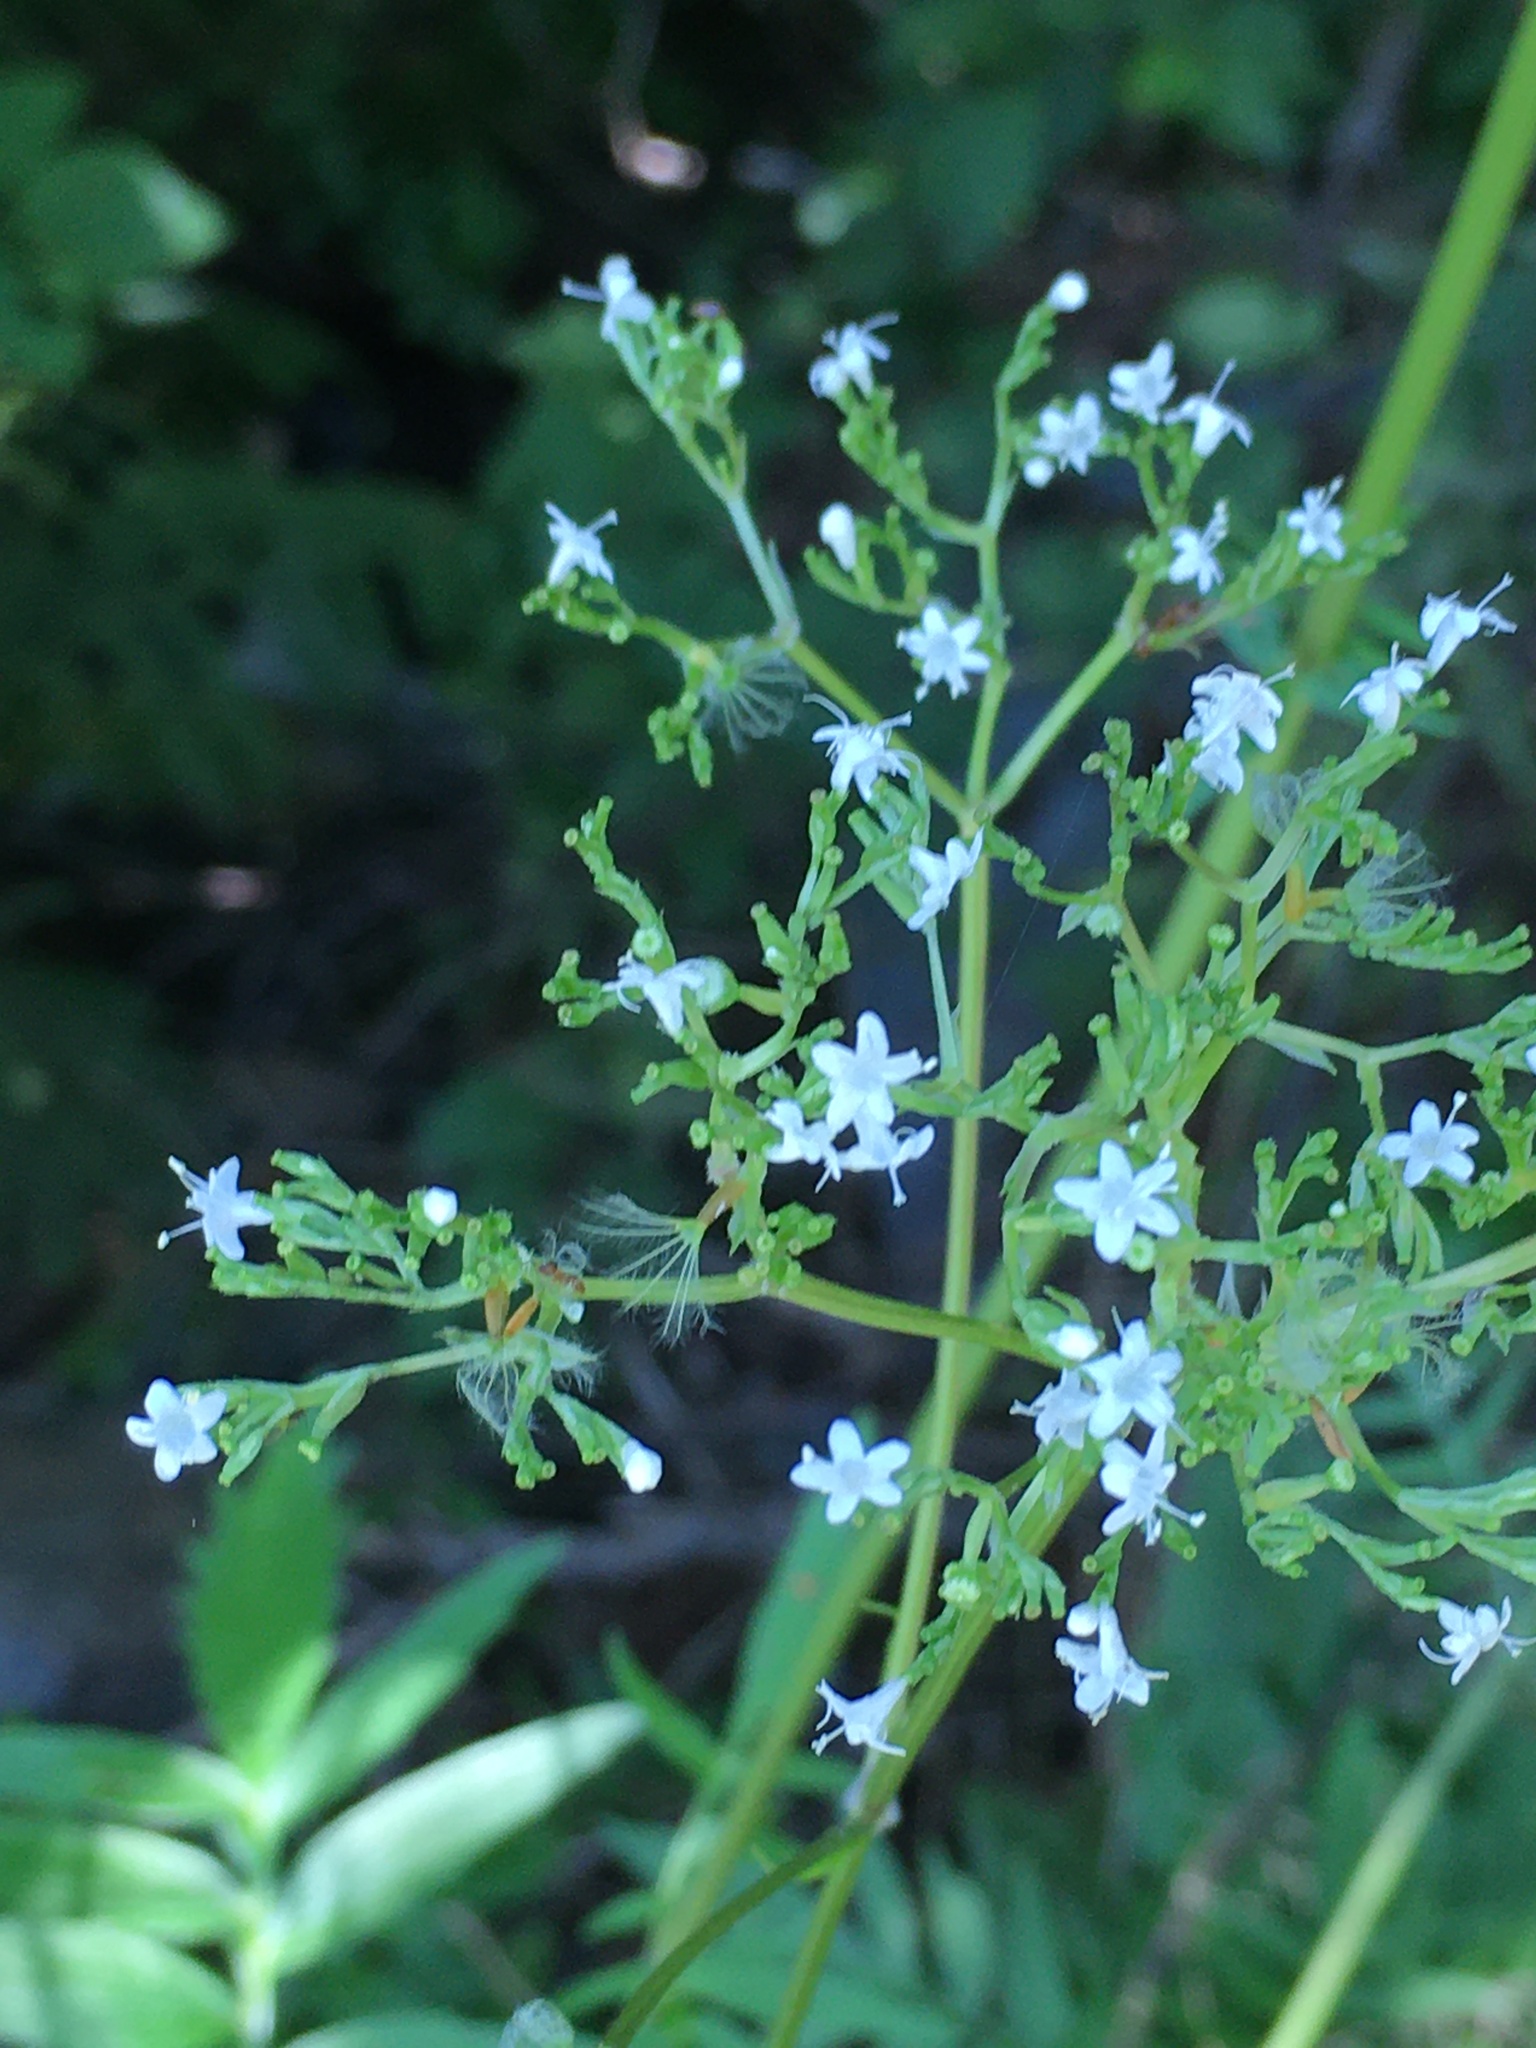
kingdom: Plantae
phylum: Tracheophyta
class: Magnoliopsida
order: Dipsacales
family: Caprifoliaceae
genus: Valeriana
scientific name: Valeriana officinalis
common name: Common valerian
